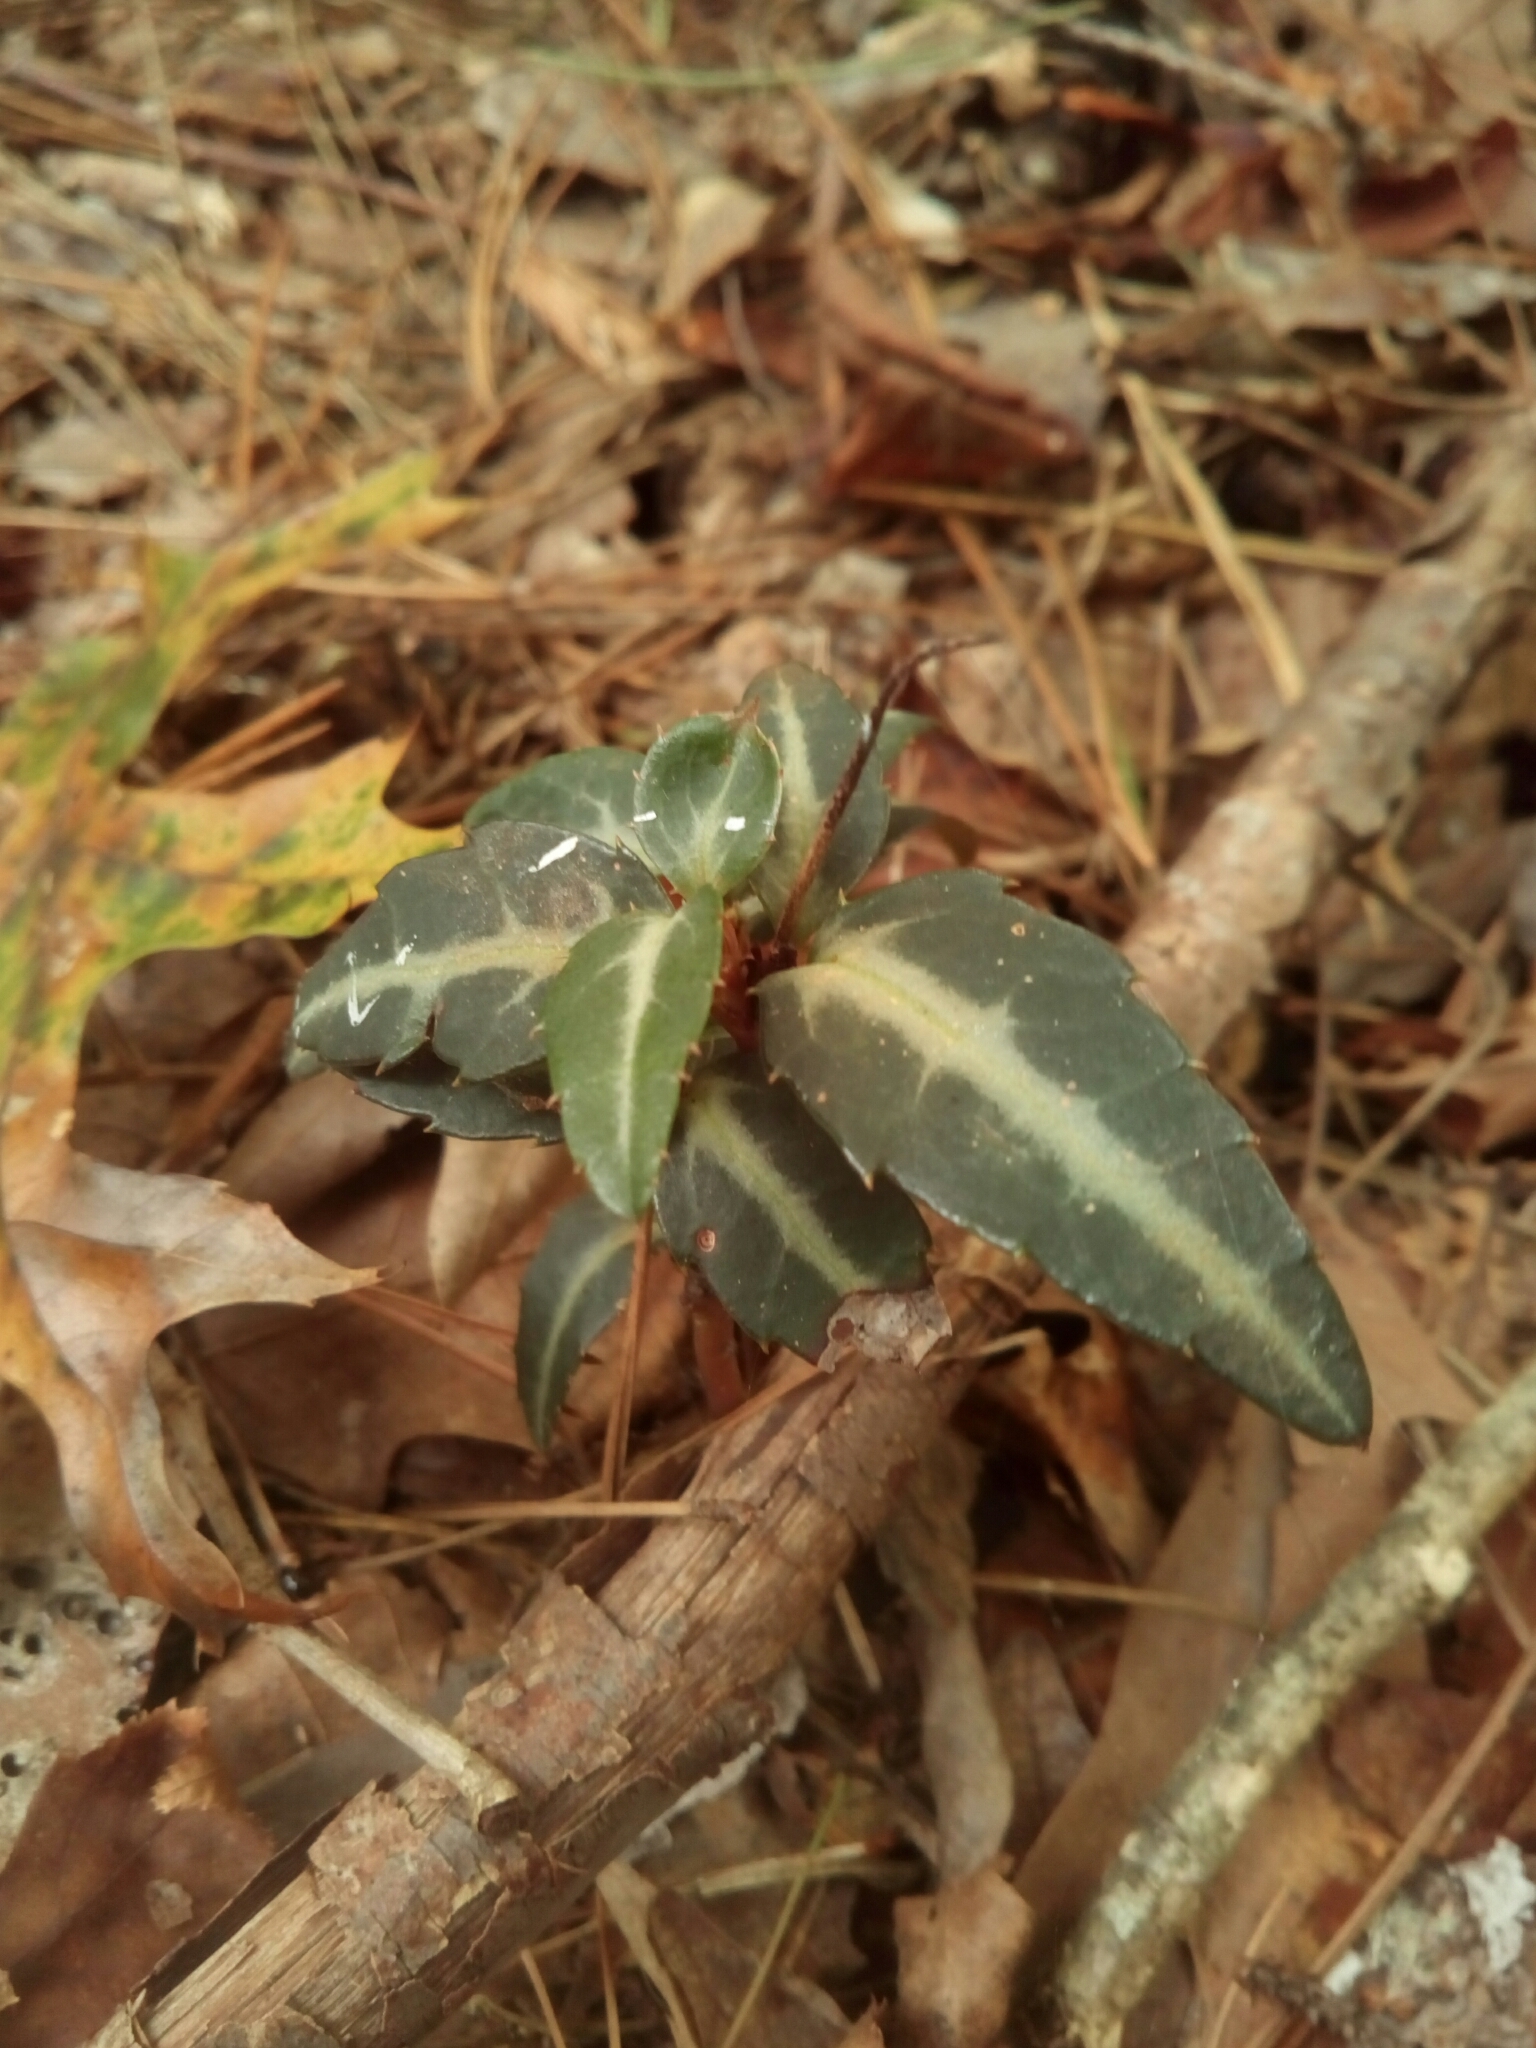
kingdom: Plantae
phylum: Tracheophyta
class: Magnoliopsida
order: Ericales
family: Ericaceae
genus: Chimaphila
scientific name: Chimaphila maculata
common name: Spotted pipsissewa
